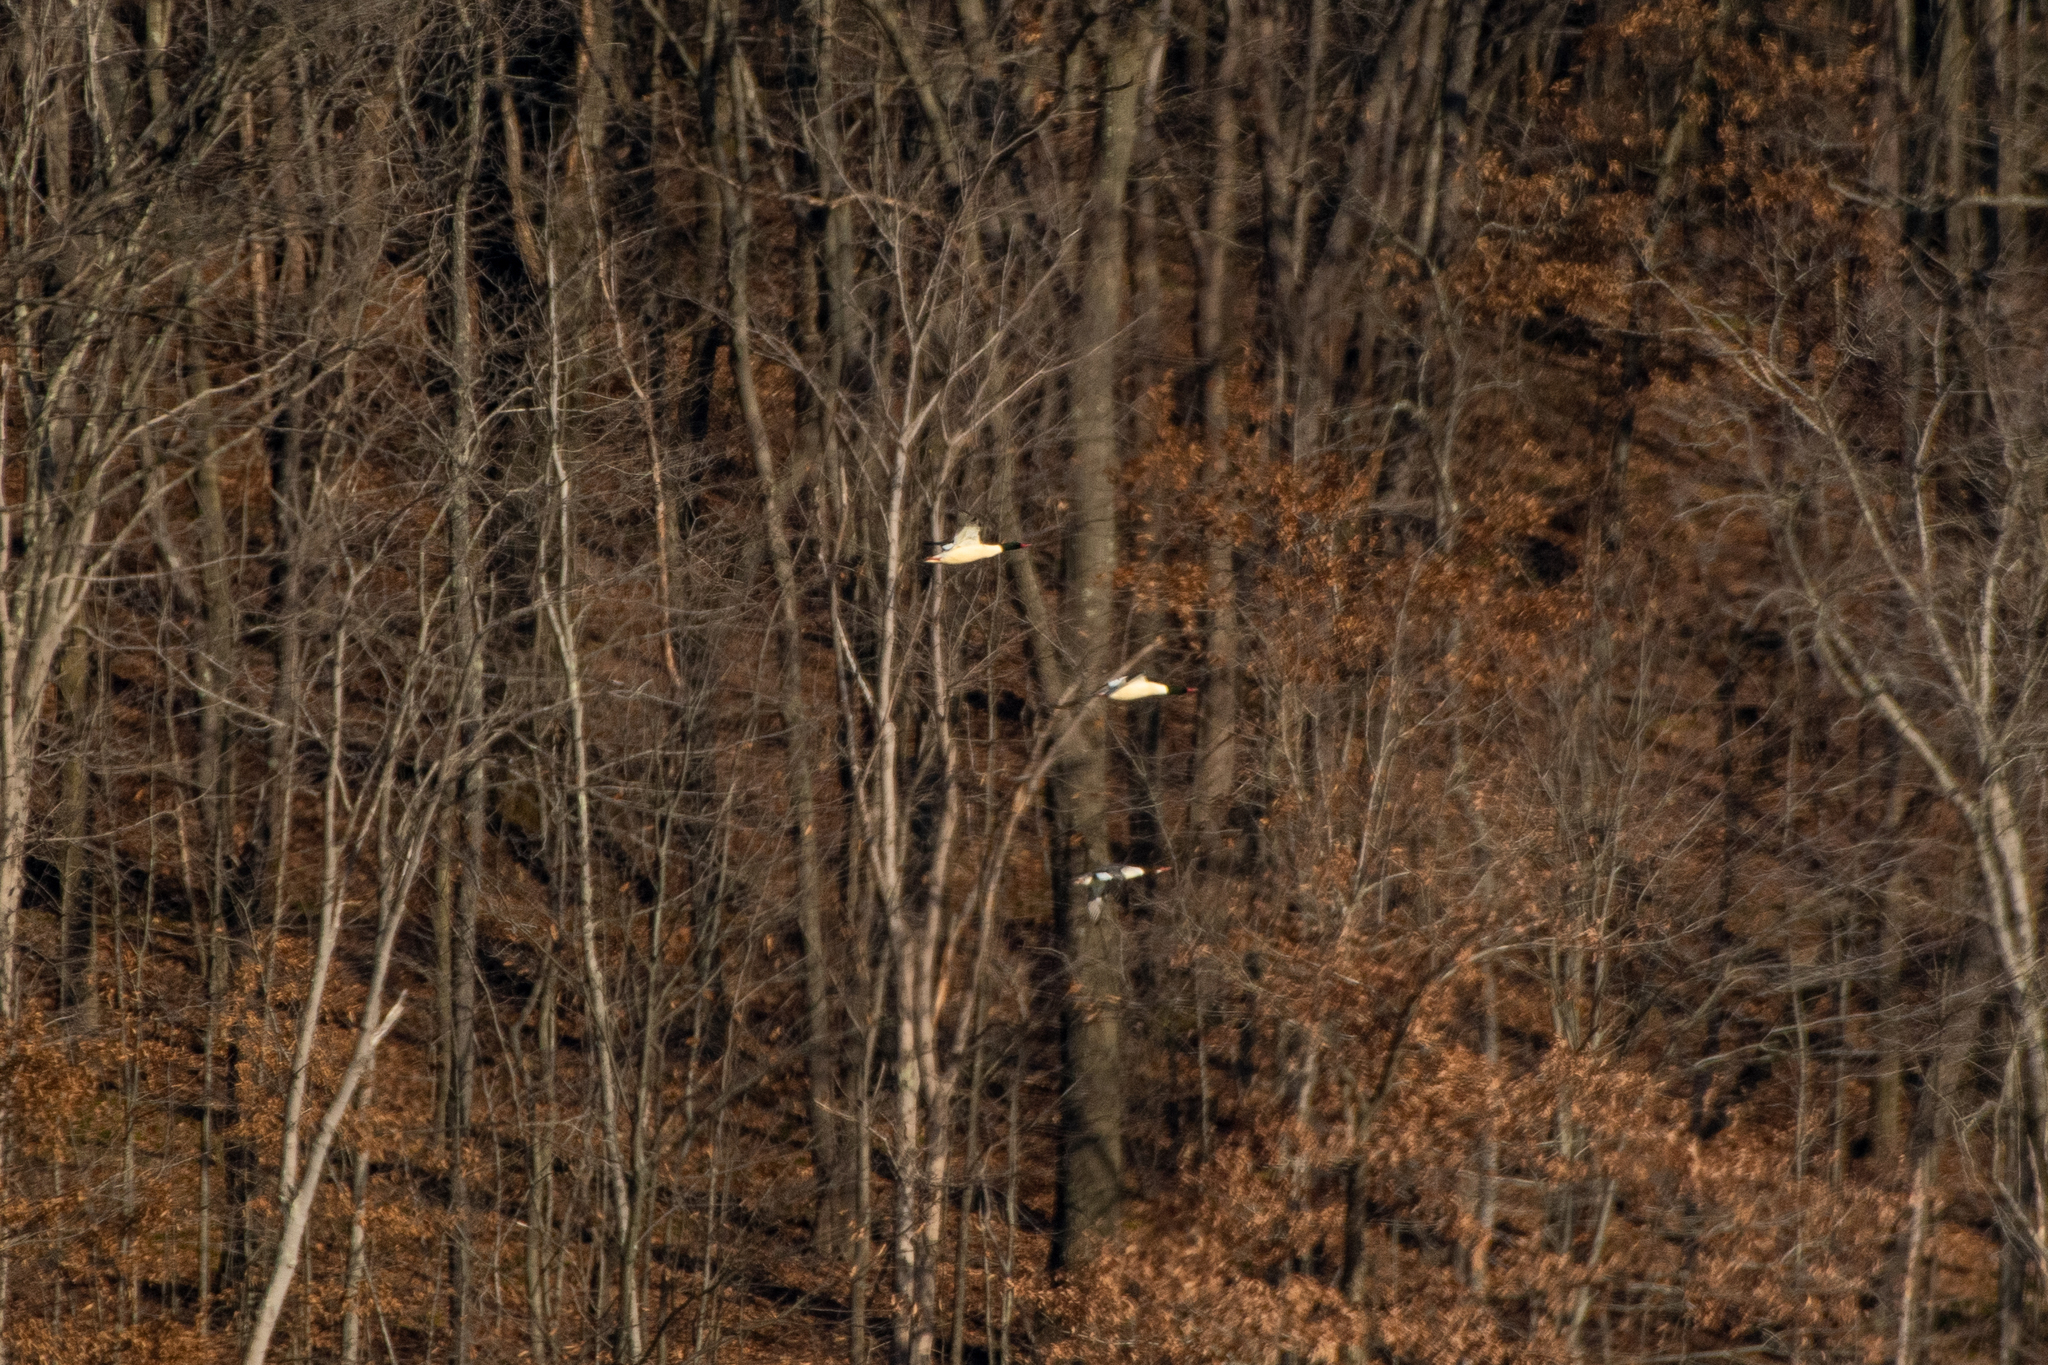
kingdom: Animalia
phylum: Chordata
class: Aves
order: Anseriformes
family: Anatidae
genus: Mergus
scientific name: Mergus merganser
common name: Common merganser
